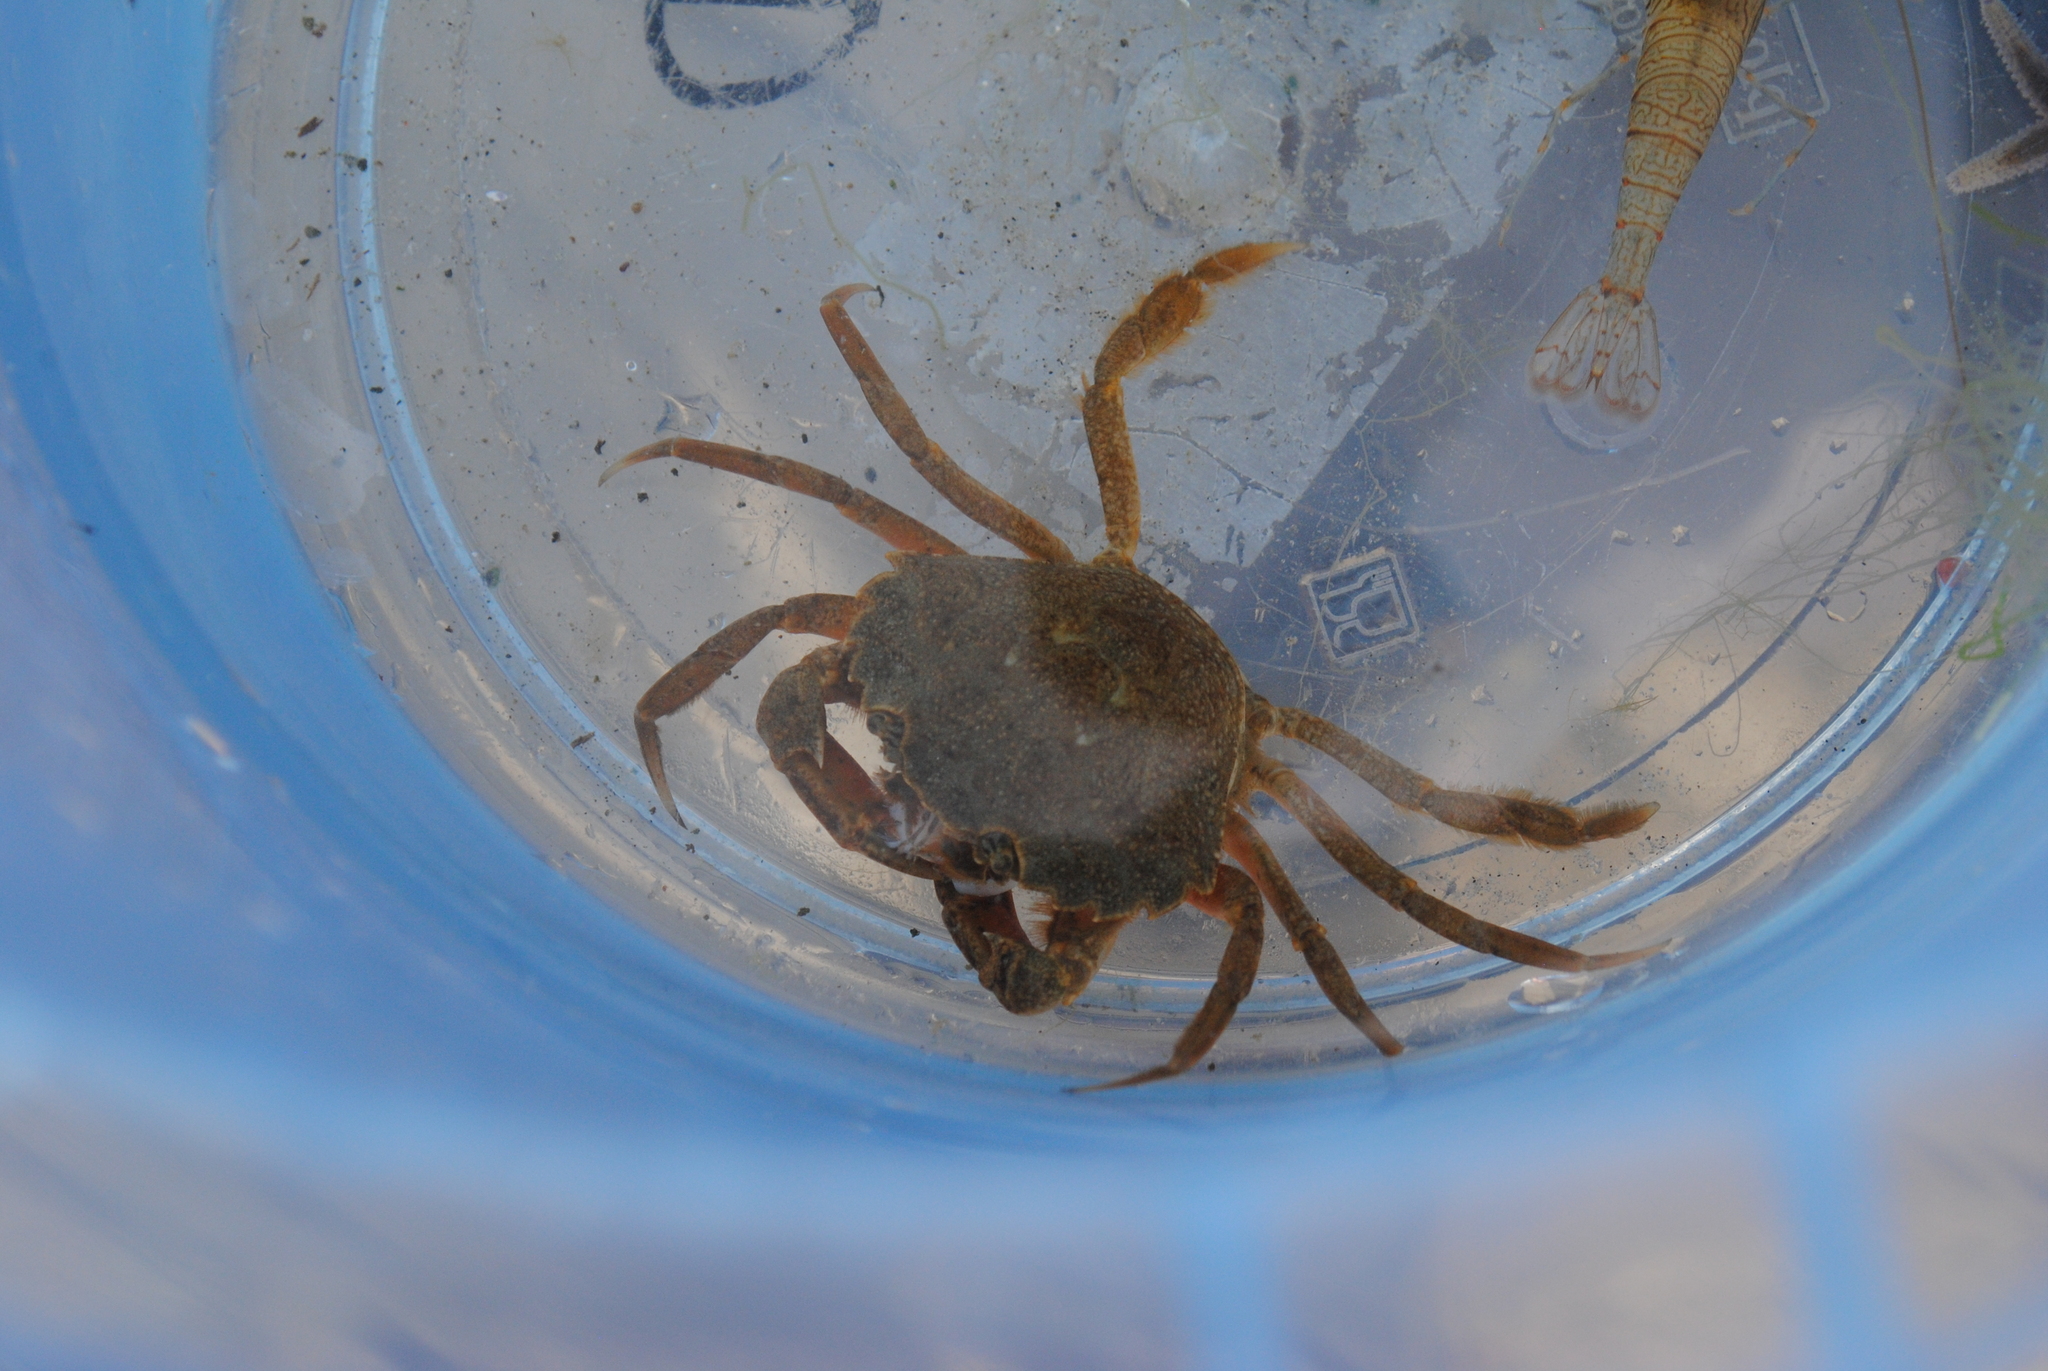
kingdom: Animalia
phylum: Arthropoda
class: Malacostraca
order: Decapoda
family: Carcinidae
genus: Carcinus
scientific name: Carcinus maenas
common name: European green crab
